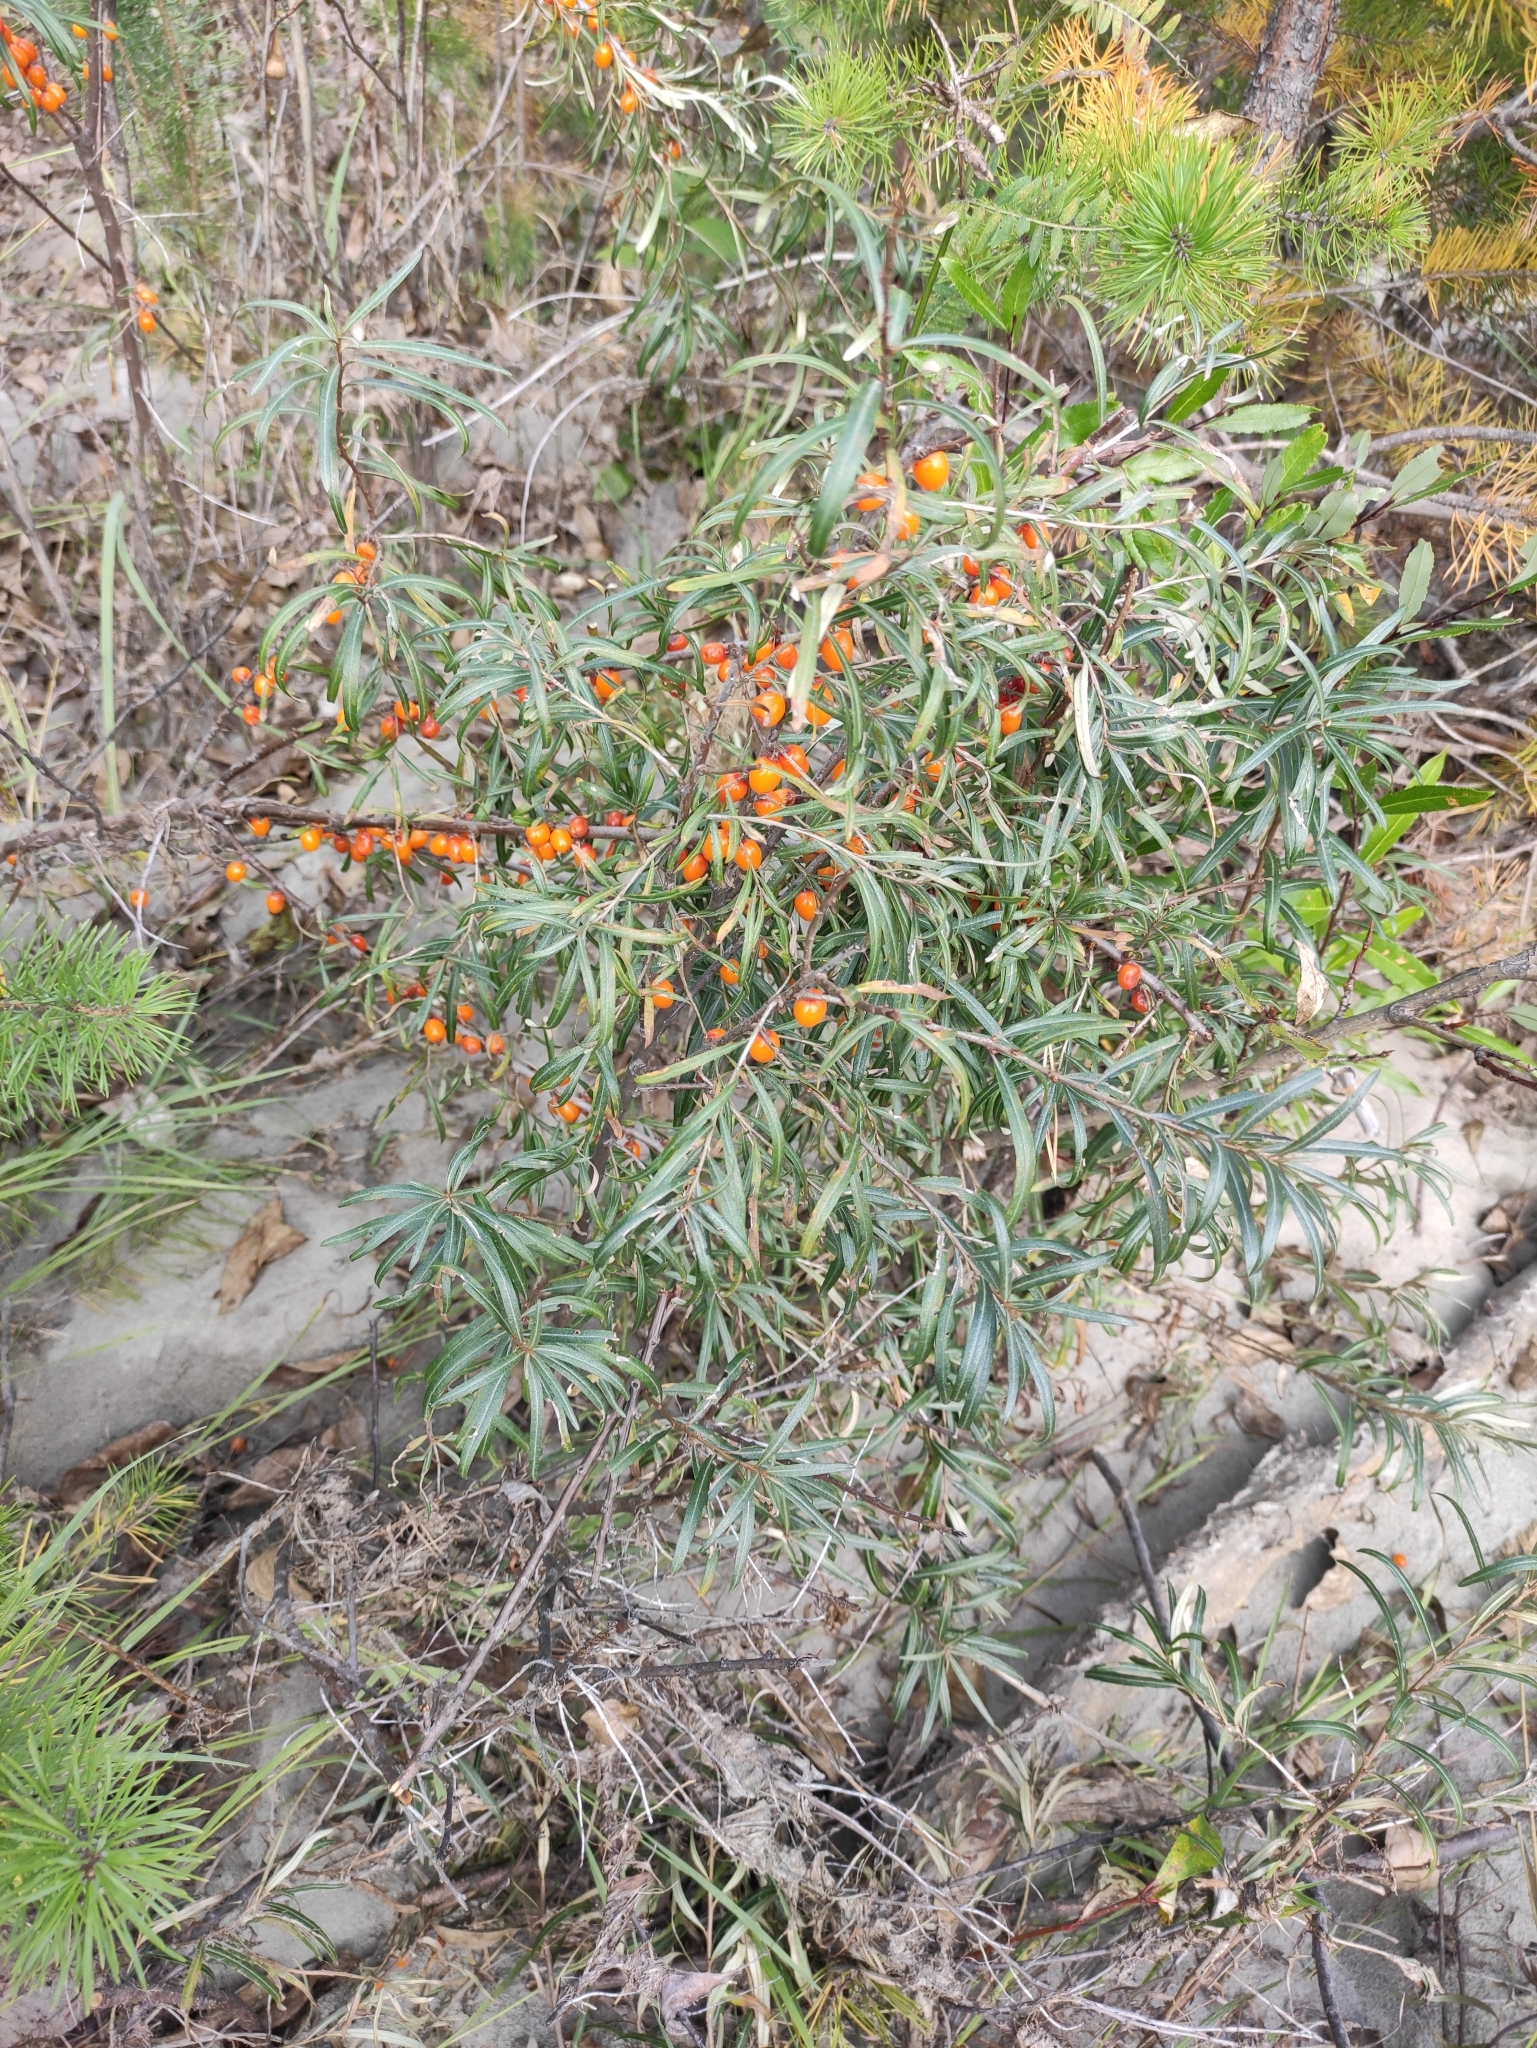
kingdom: Plantae
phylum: Tracheophyta
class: Magnoliopsida
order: Rosales
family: Elaeagnaceae
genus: Hippophae
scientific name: Hippophae rhamnoides
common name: Sea-buckthorn
